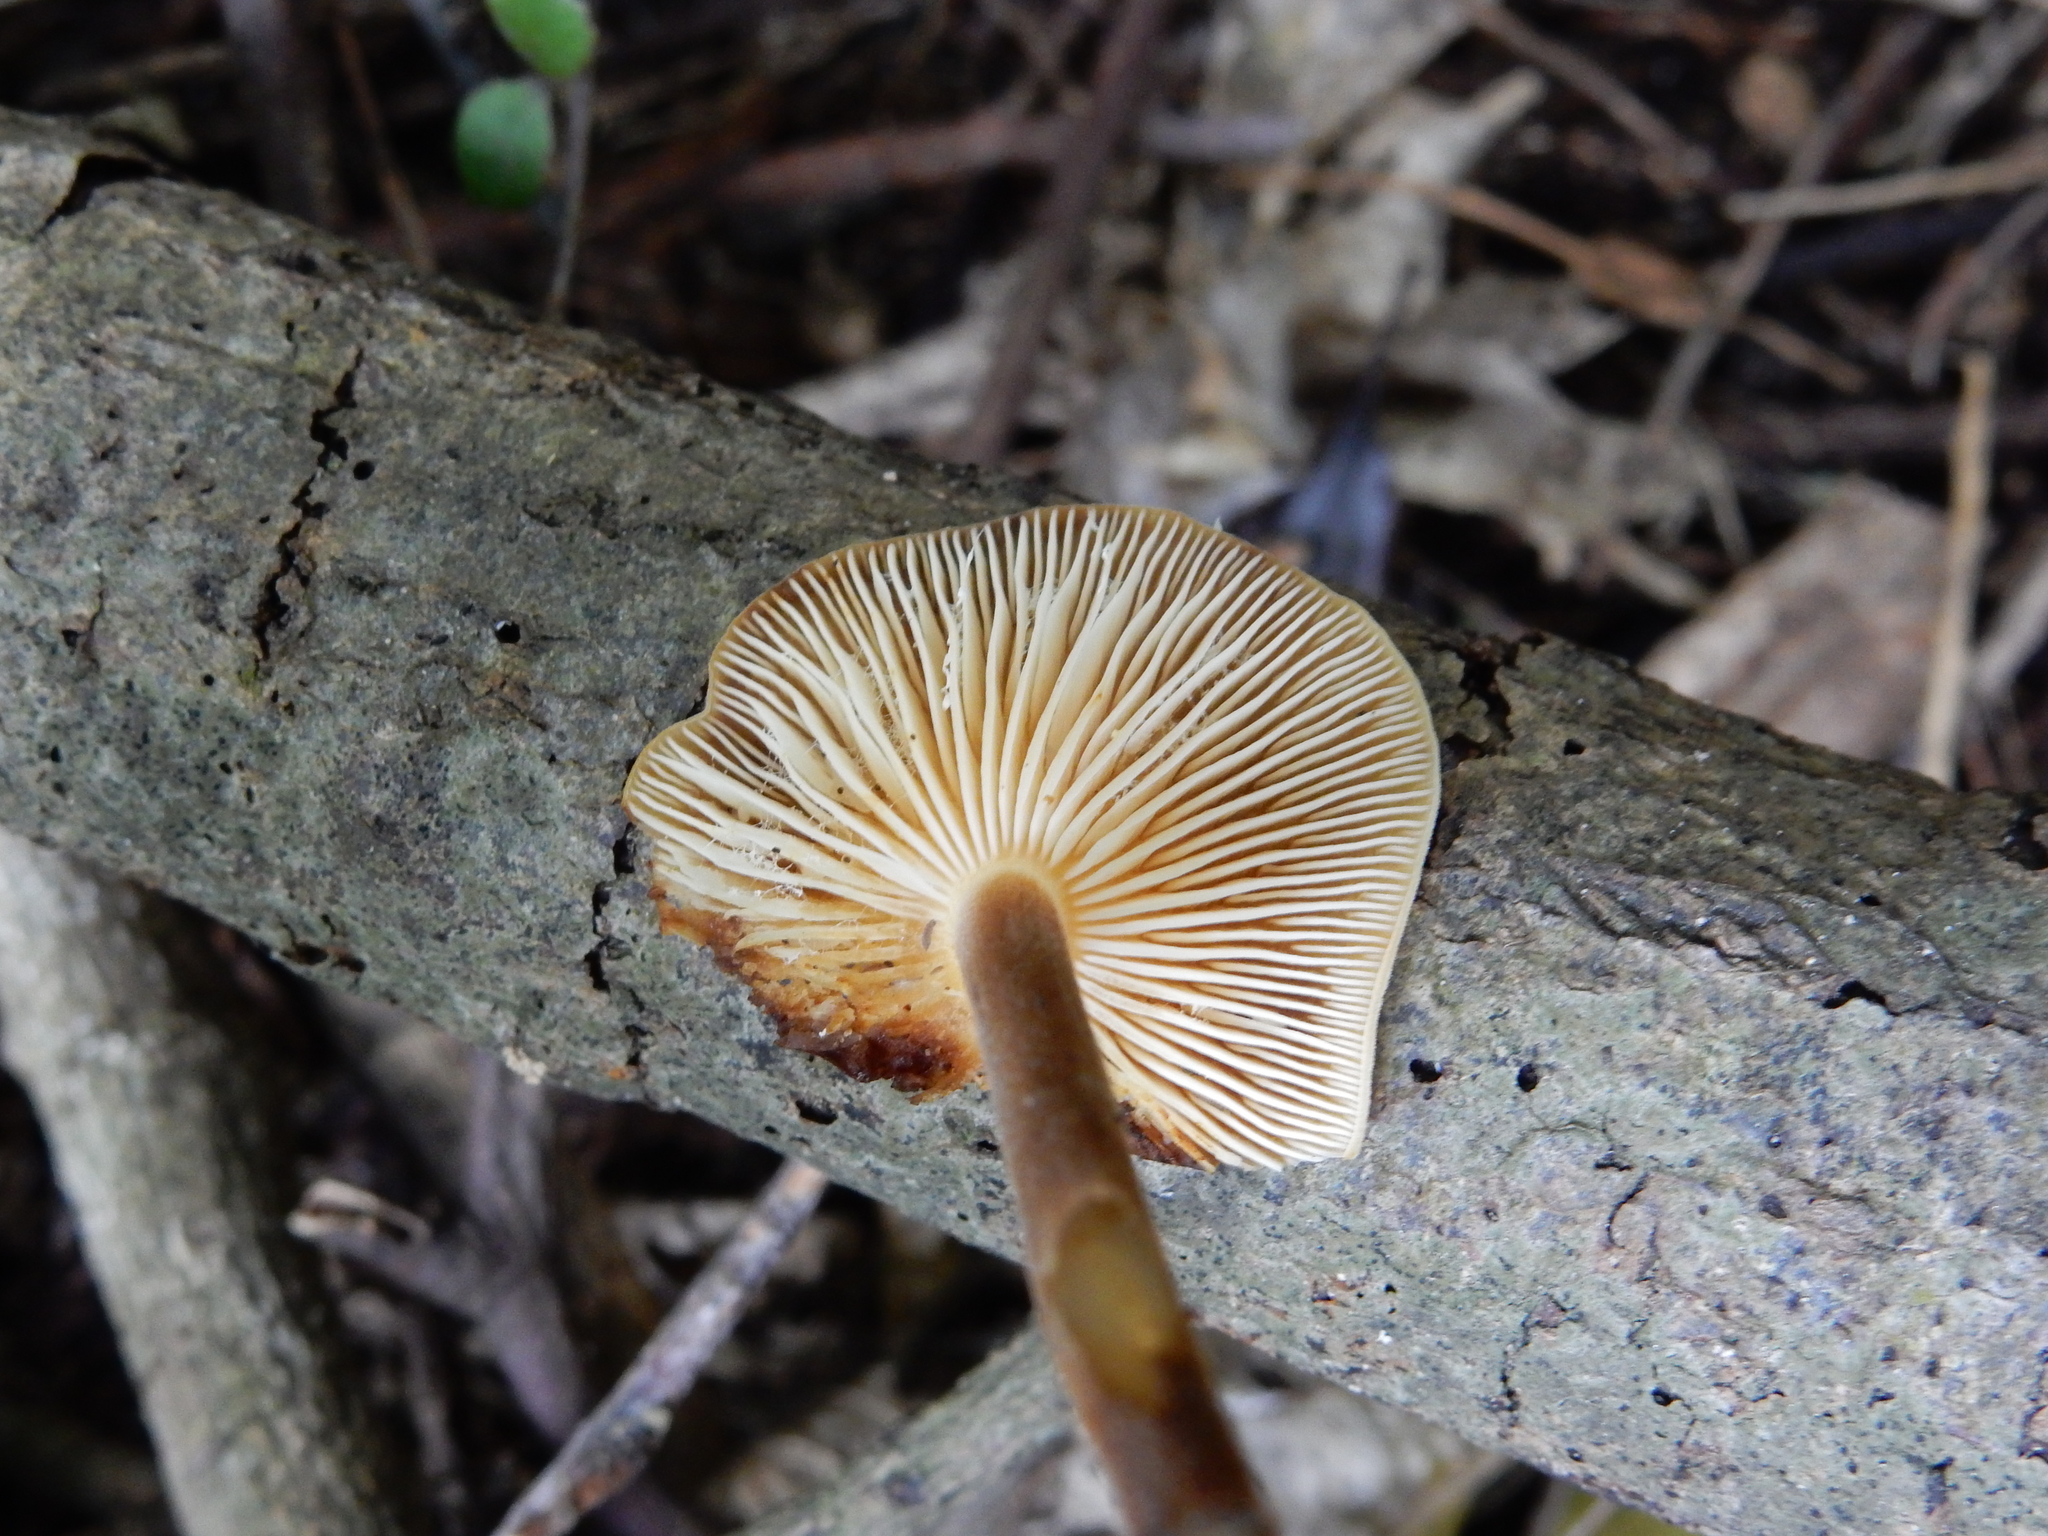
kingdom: Fungi
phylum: Basidiomycota
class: Agaricomycetes
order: Agaricales
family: Physalacriaceae
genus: Flammulina
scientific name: Flammulina velutipes
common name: Velvet shank
